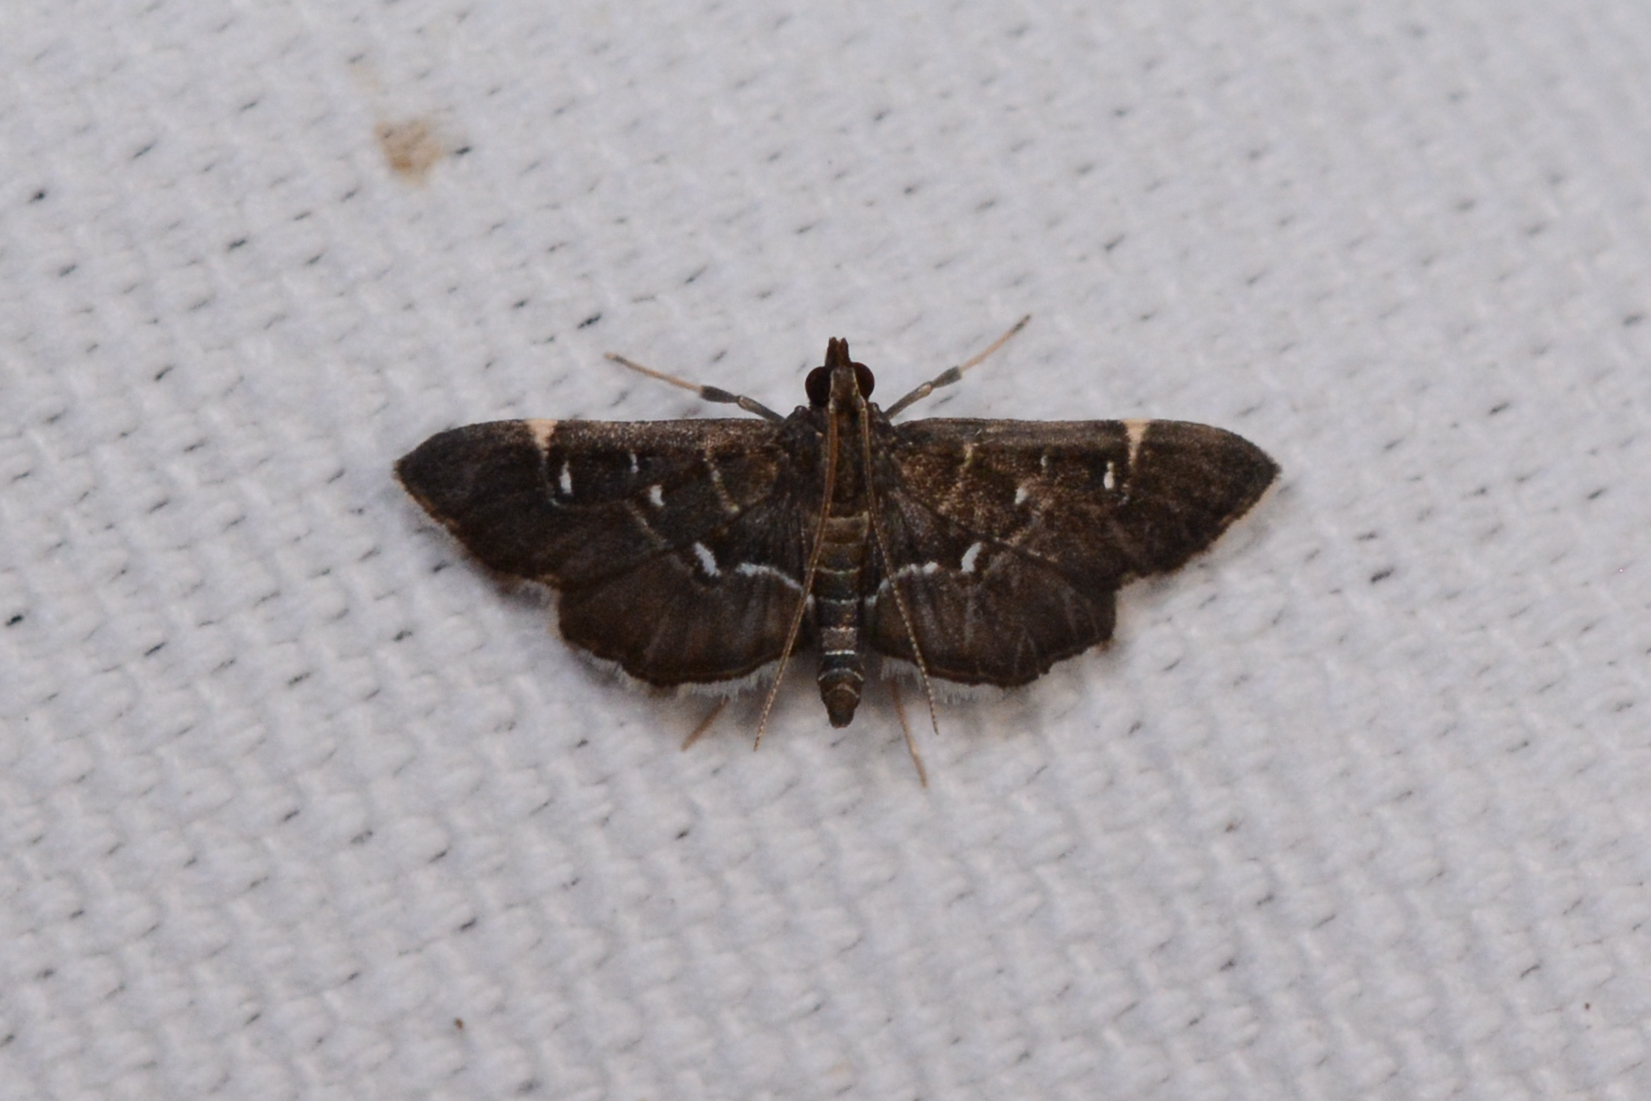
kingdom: Animalia
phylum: Arthropoda
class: Insecta
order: Lepidoptera
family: Crambidae
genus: Diathrausta
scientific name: Diathrausta
